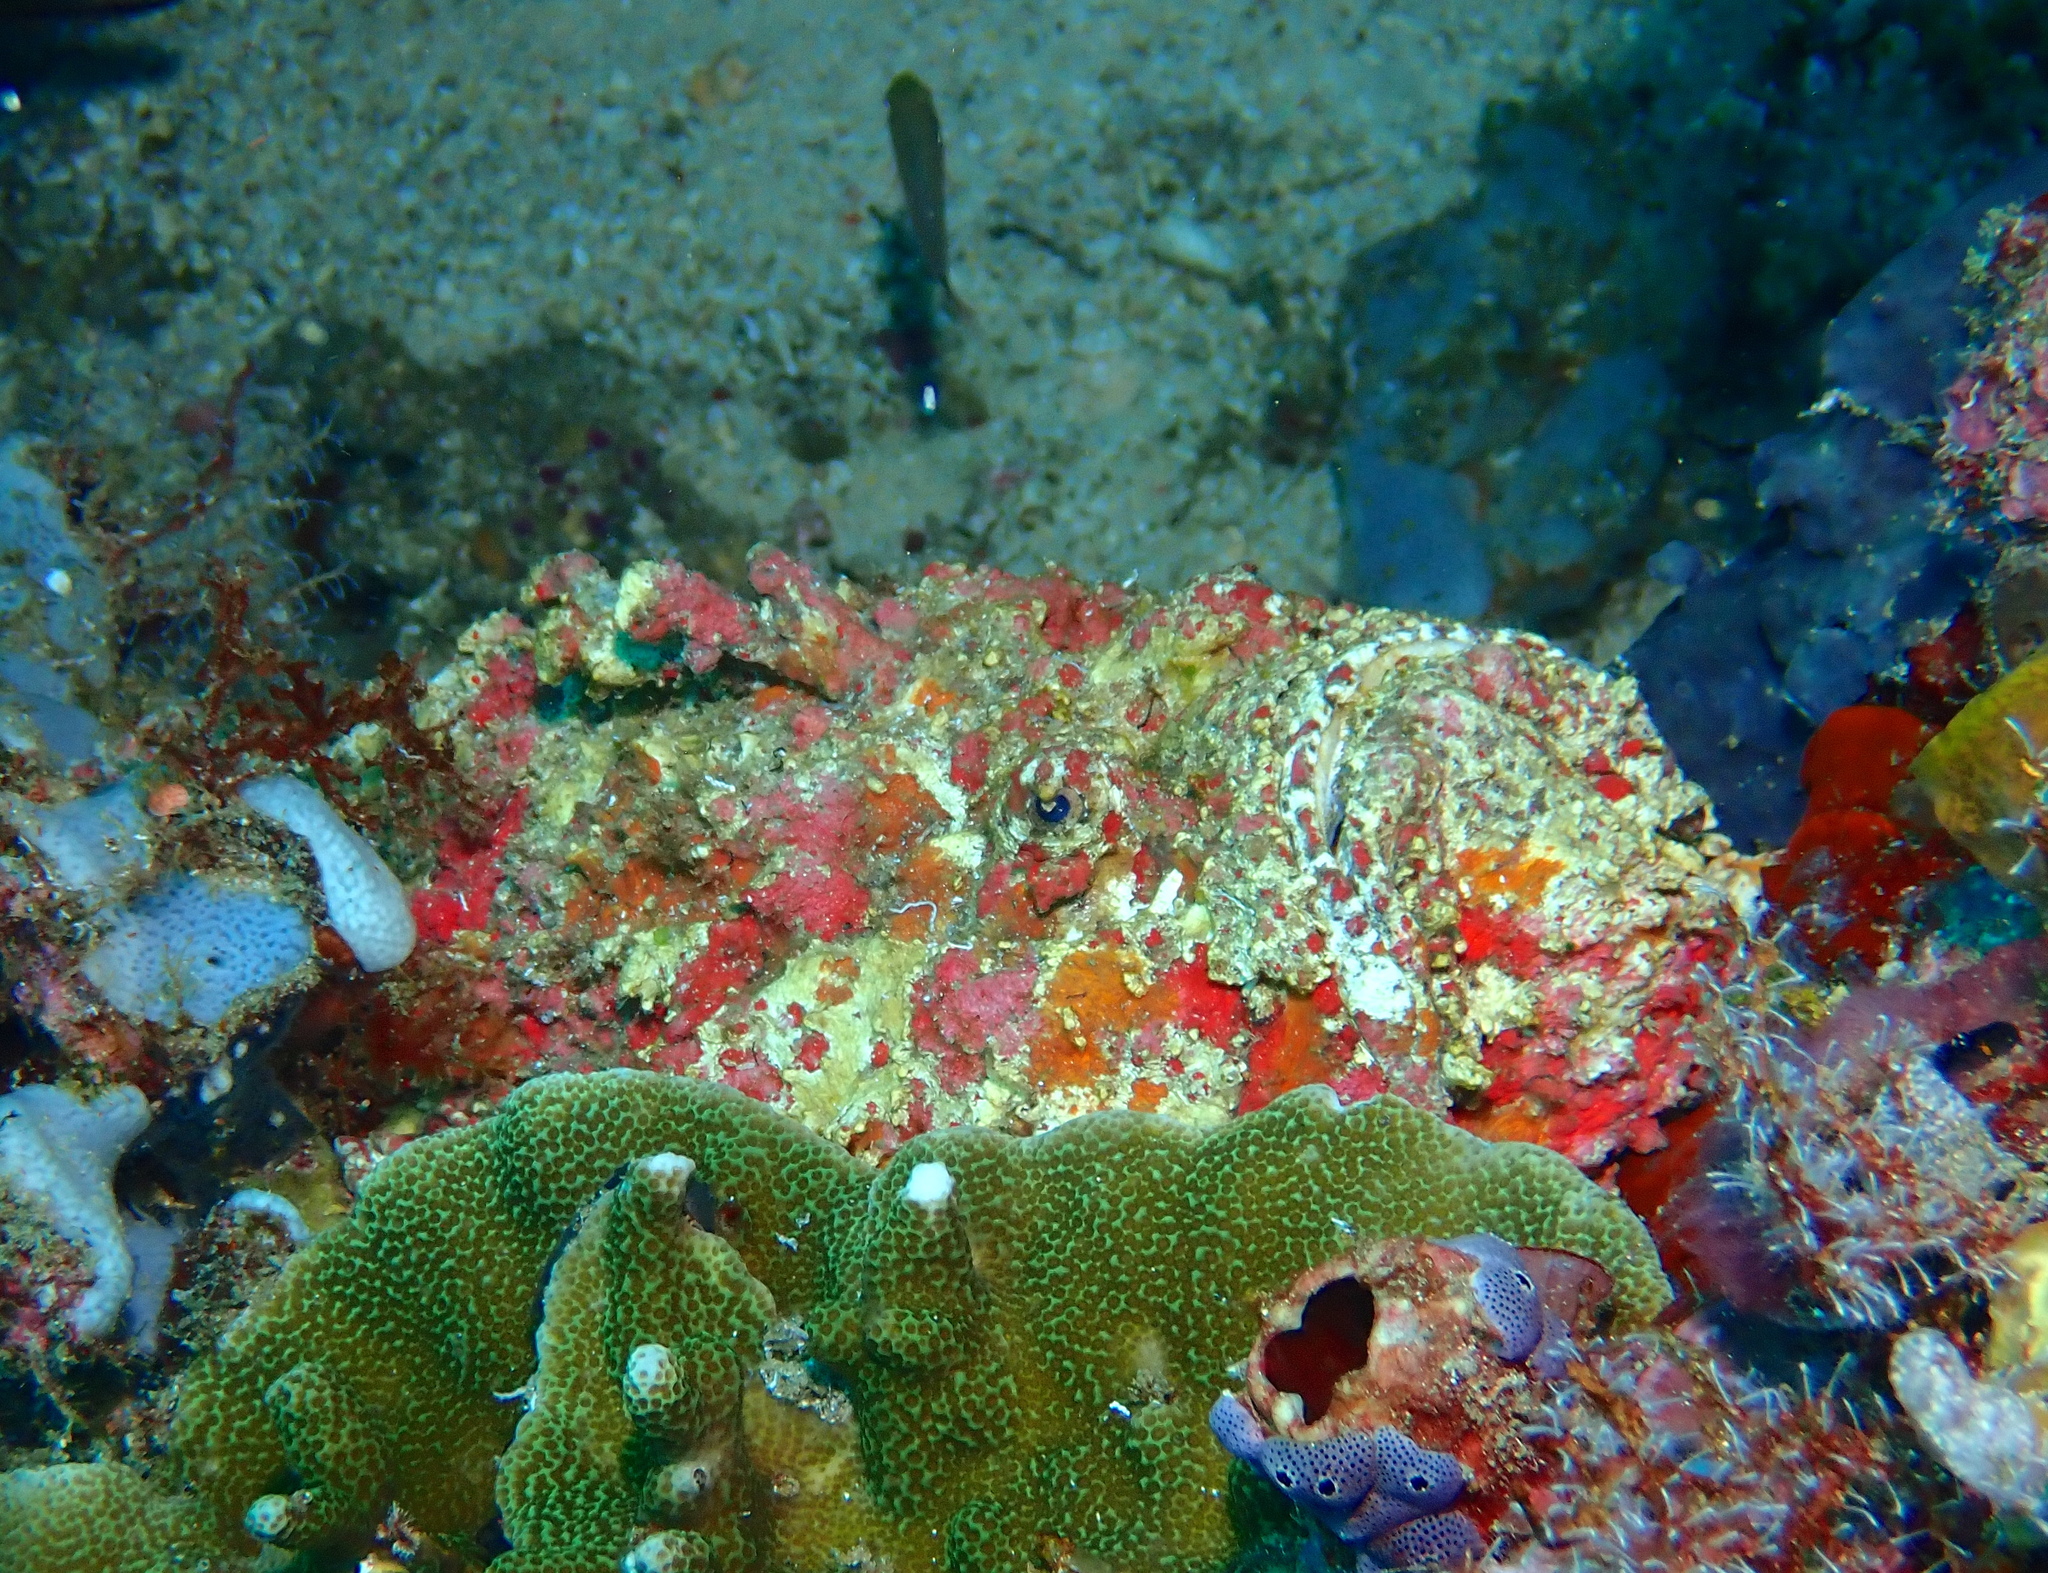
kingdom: Animalia
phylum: Chordata
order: Scorpaeniformes
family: Synanceiidae
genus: Synanceia
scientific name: Synanceia verrucosa
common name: Stonefish
